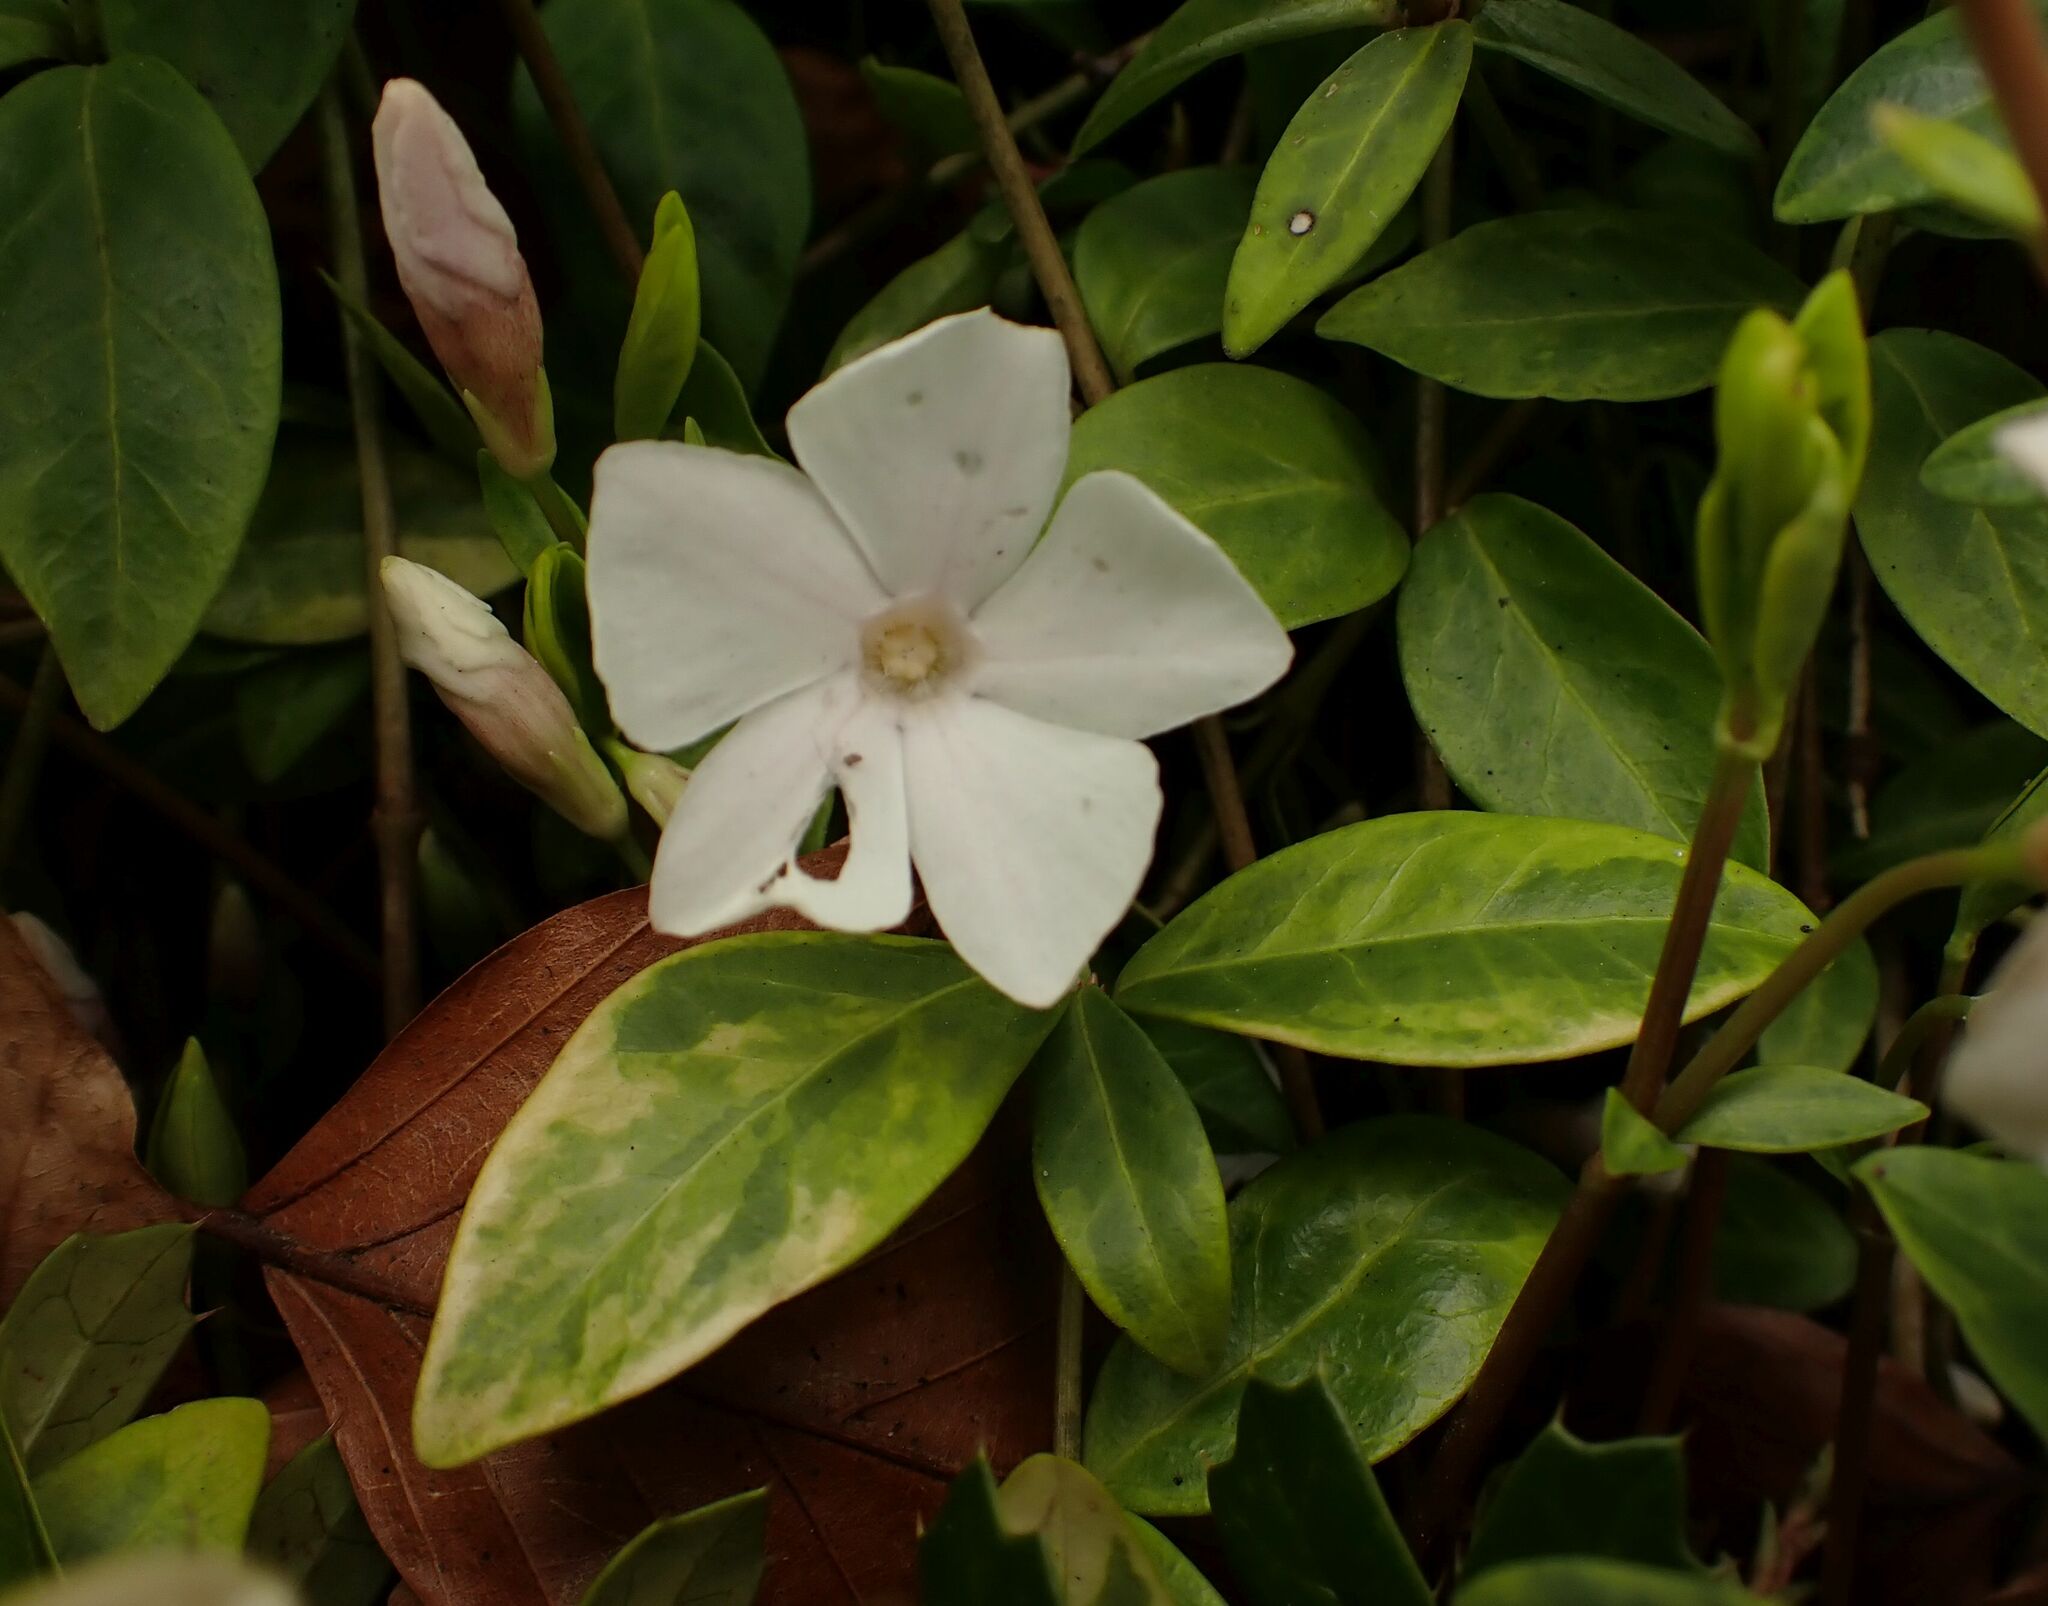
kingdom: Plantae
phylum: Tracheophyta
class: Magnoliopsida
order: Gentianales
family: Apocynaceae
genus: Vinca
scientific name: Vinca minor
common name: Lesser periwinkle
